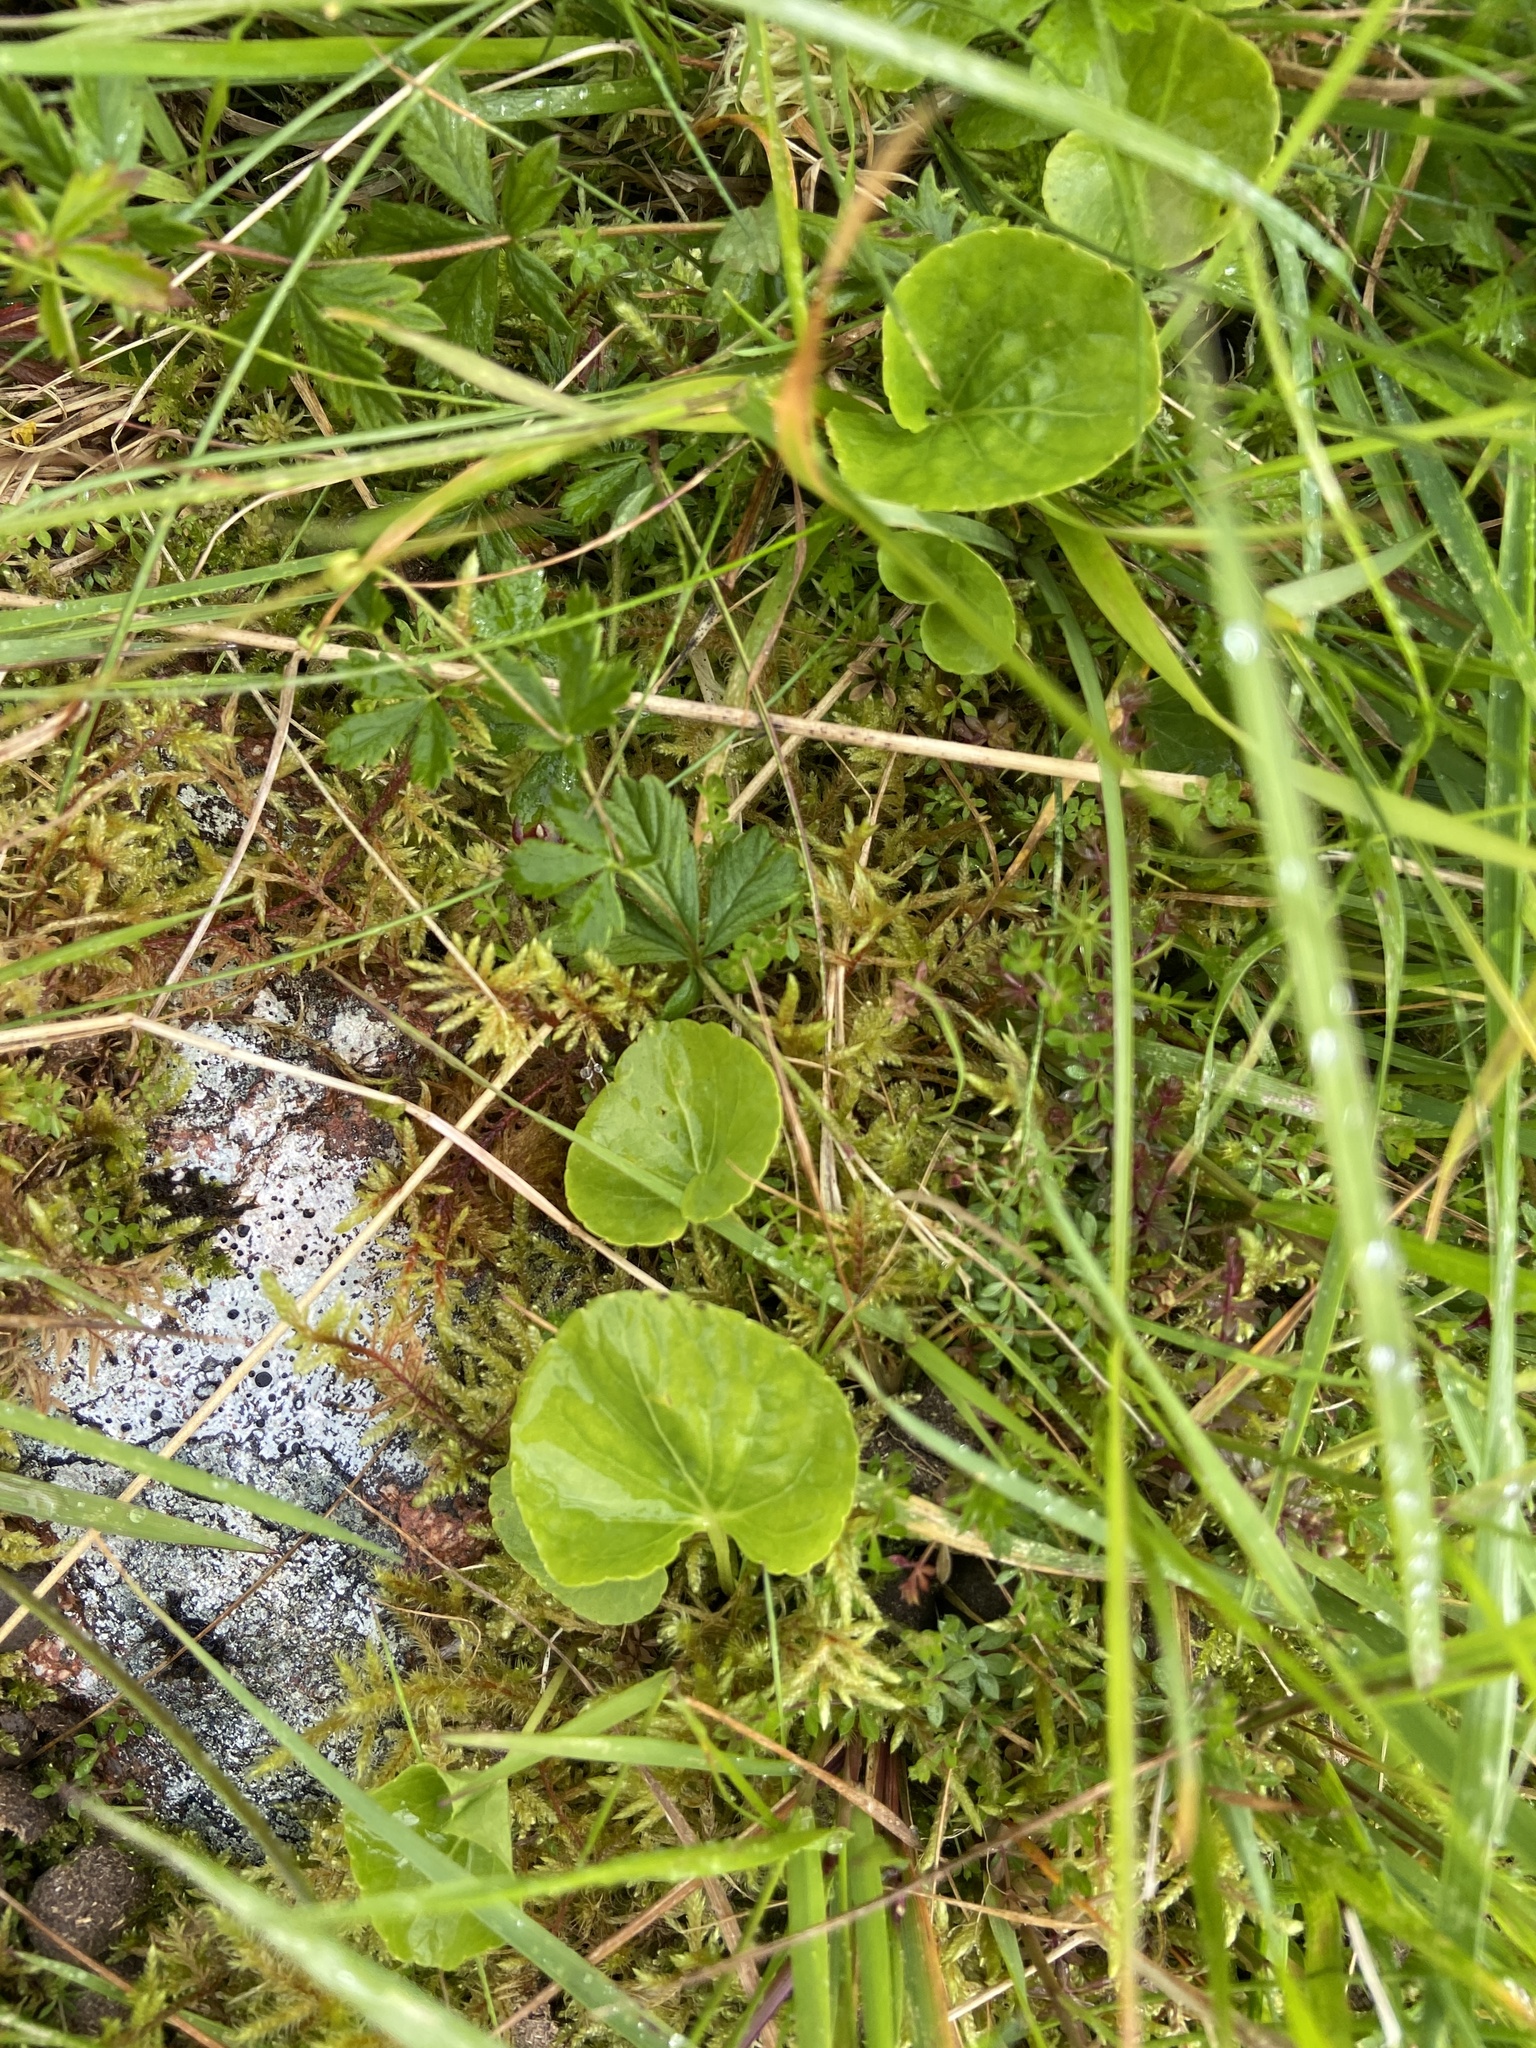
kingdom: Plantae
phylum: Tracheophyta
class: Magnoliopsida
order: Malpighiales
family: Violaceae
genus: Viola
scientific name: Viola palustris
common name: Marsh violet
